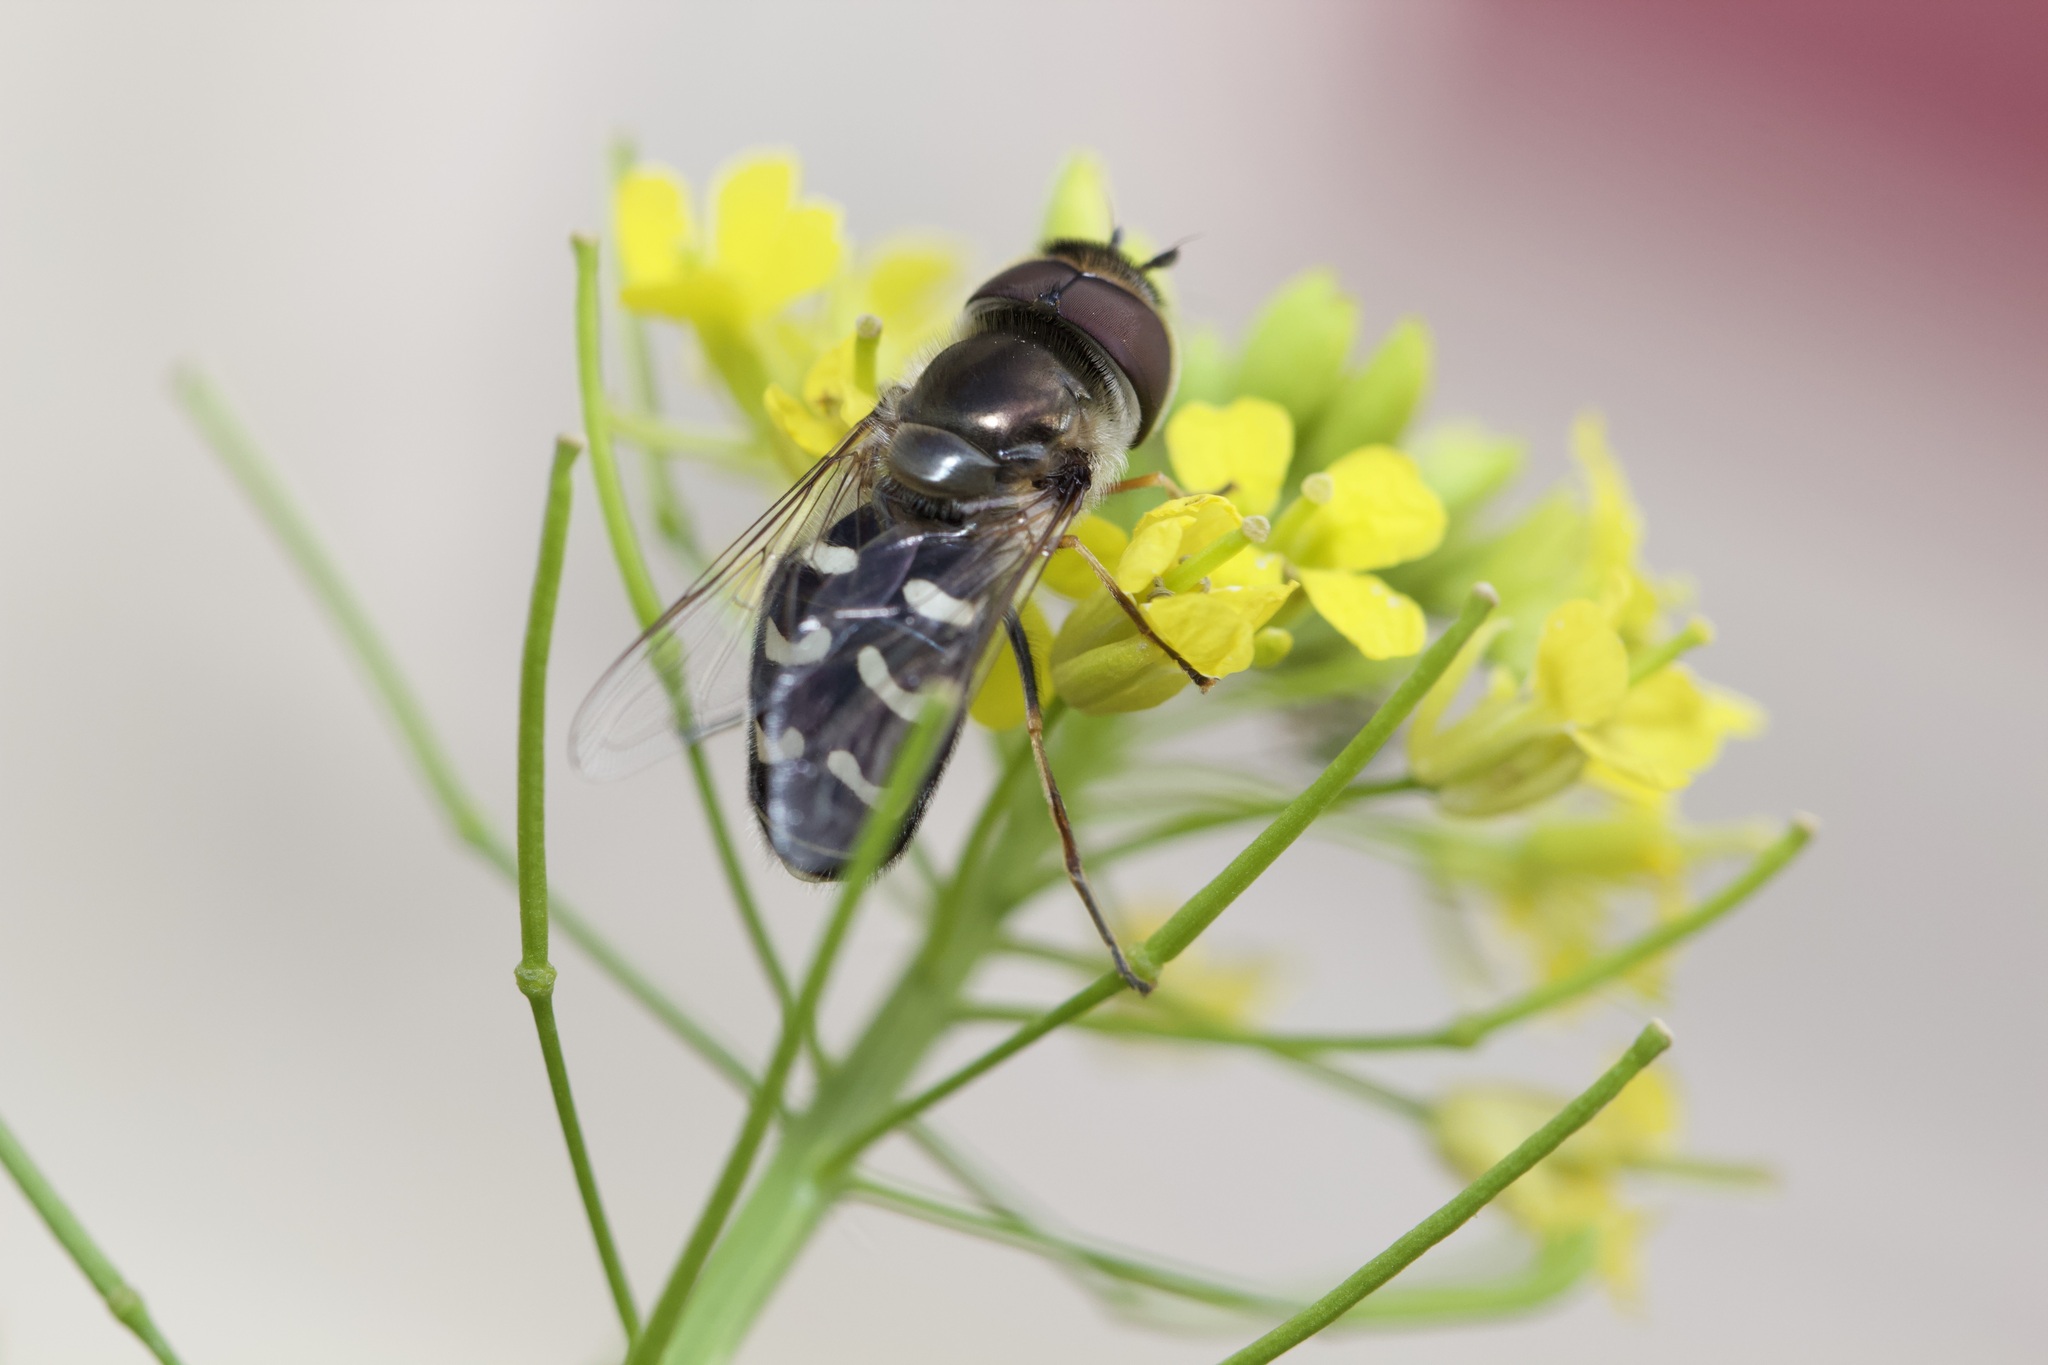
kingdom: Animalia
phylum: Arthropoda
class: Insecta
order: Diptera
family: Syrphidae
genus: Scaeva
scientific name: Scaeva affinis
